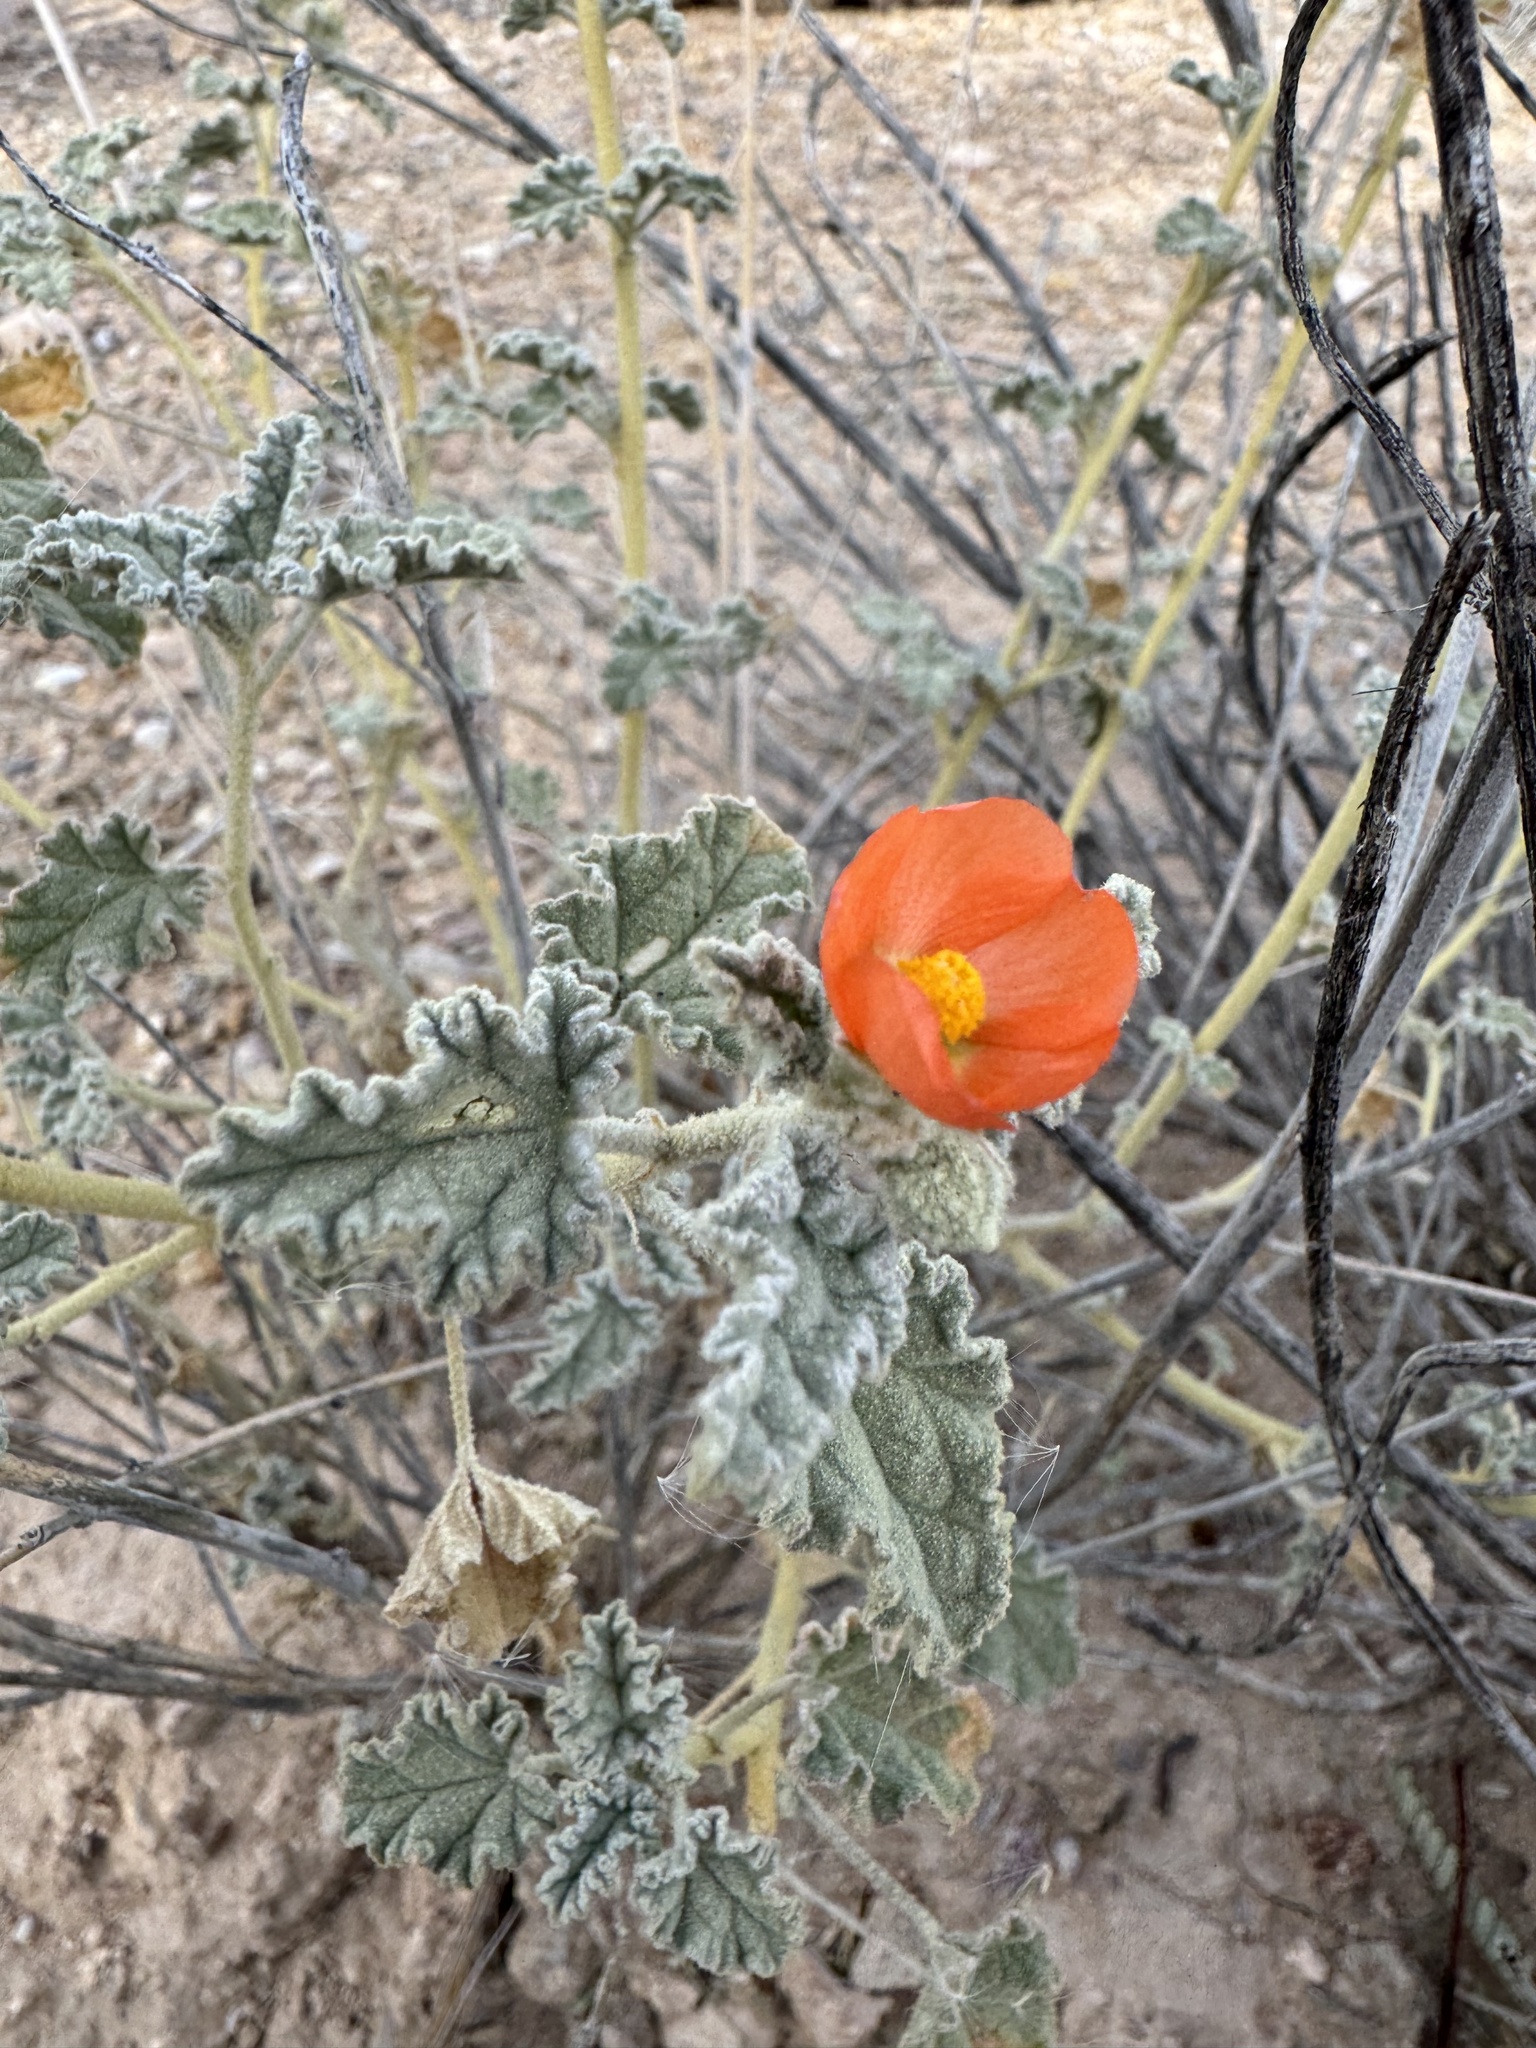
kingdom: Plantae
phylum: Tracheophyta
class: Magnoliopsida
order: Malvales
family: Malvaceae
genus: Sphaeralcea
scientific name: Sphaeralcea ambigua
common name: Apricot globe-mallow
